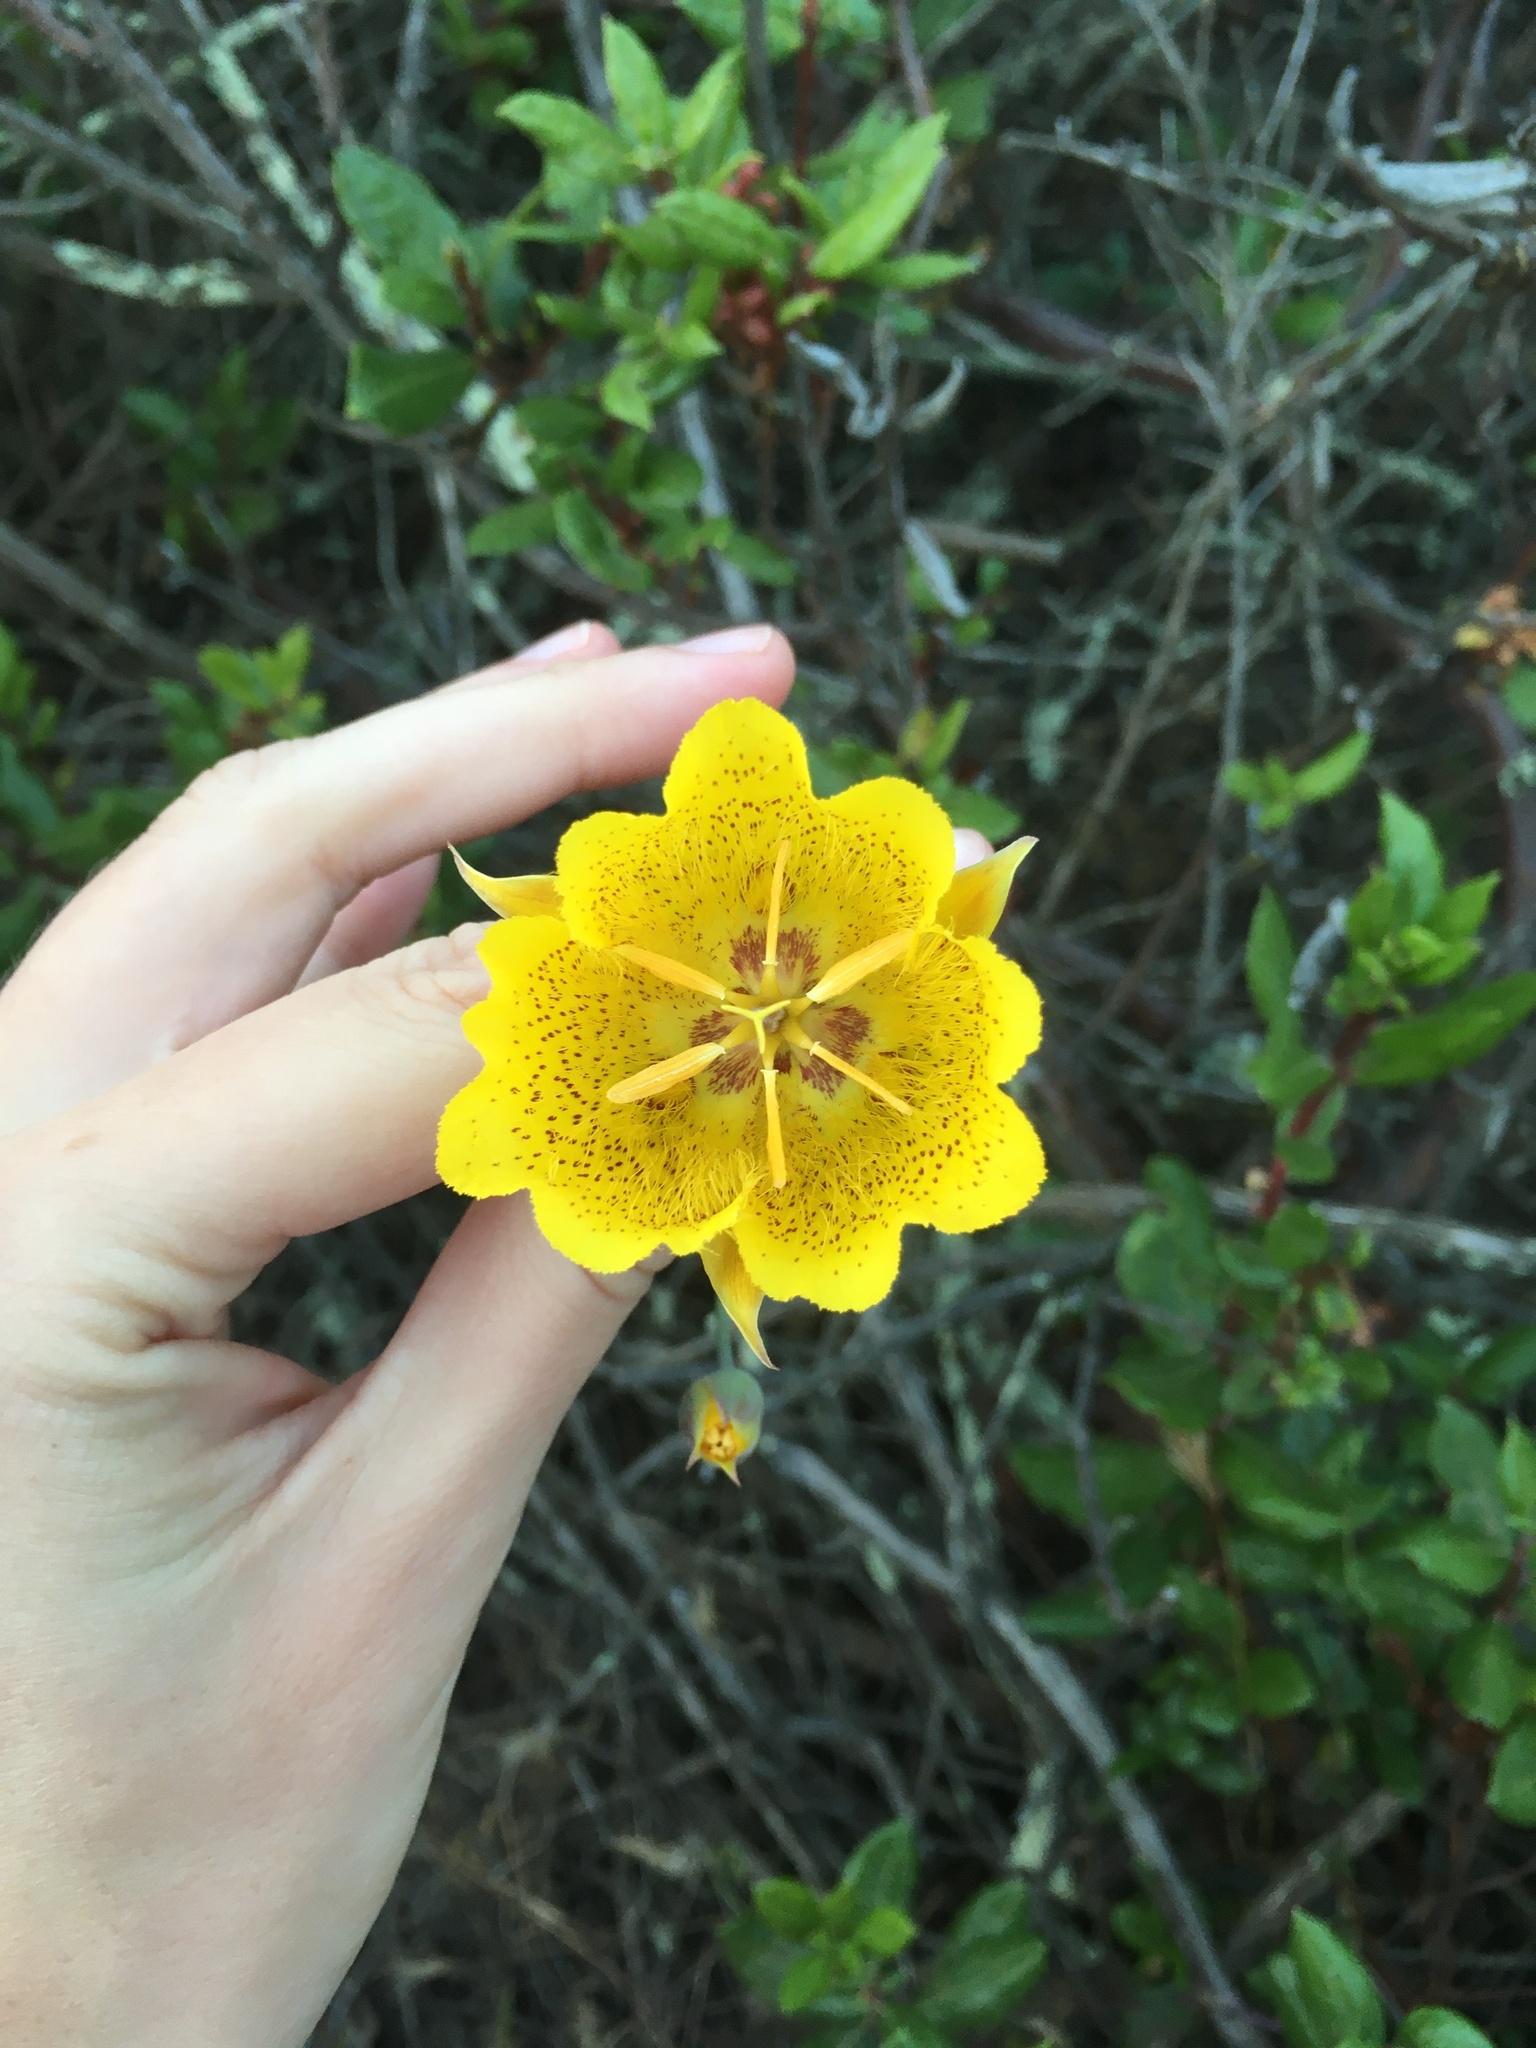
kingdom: Plantae
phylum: Tracheophyta
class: Liliopsida
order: Liliales
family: Liliaceae
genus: Calochortus
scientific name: Calochortus weedii
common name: Weed's mariposa-lily
